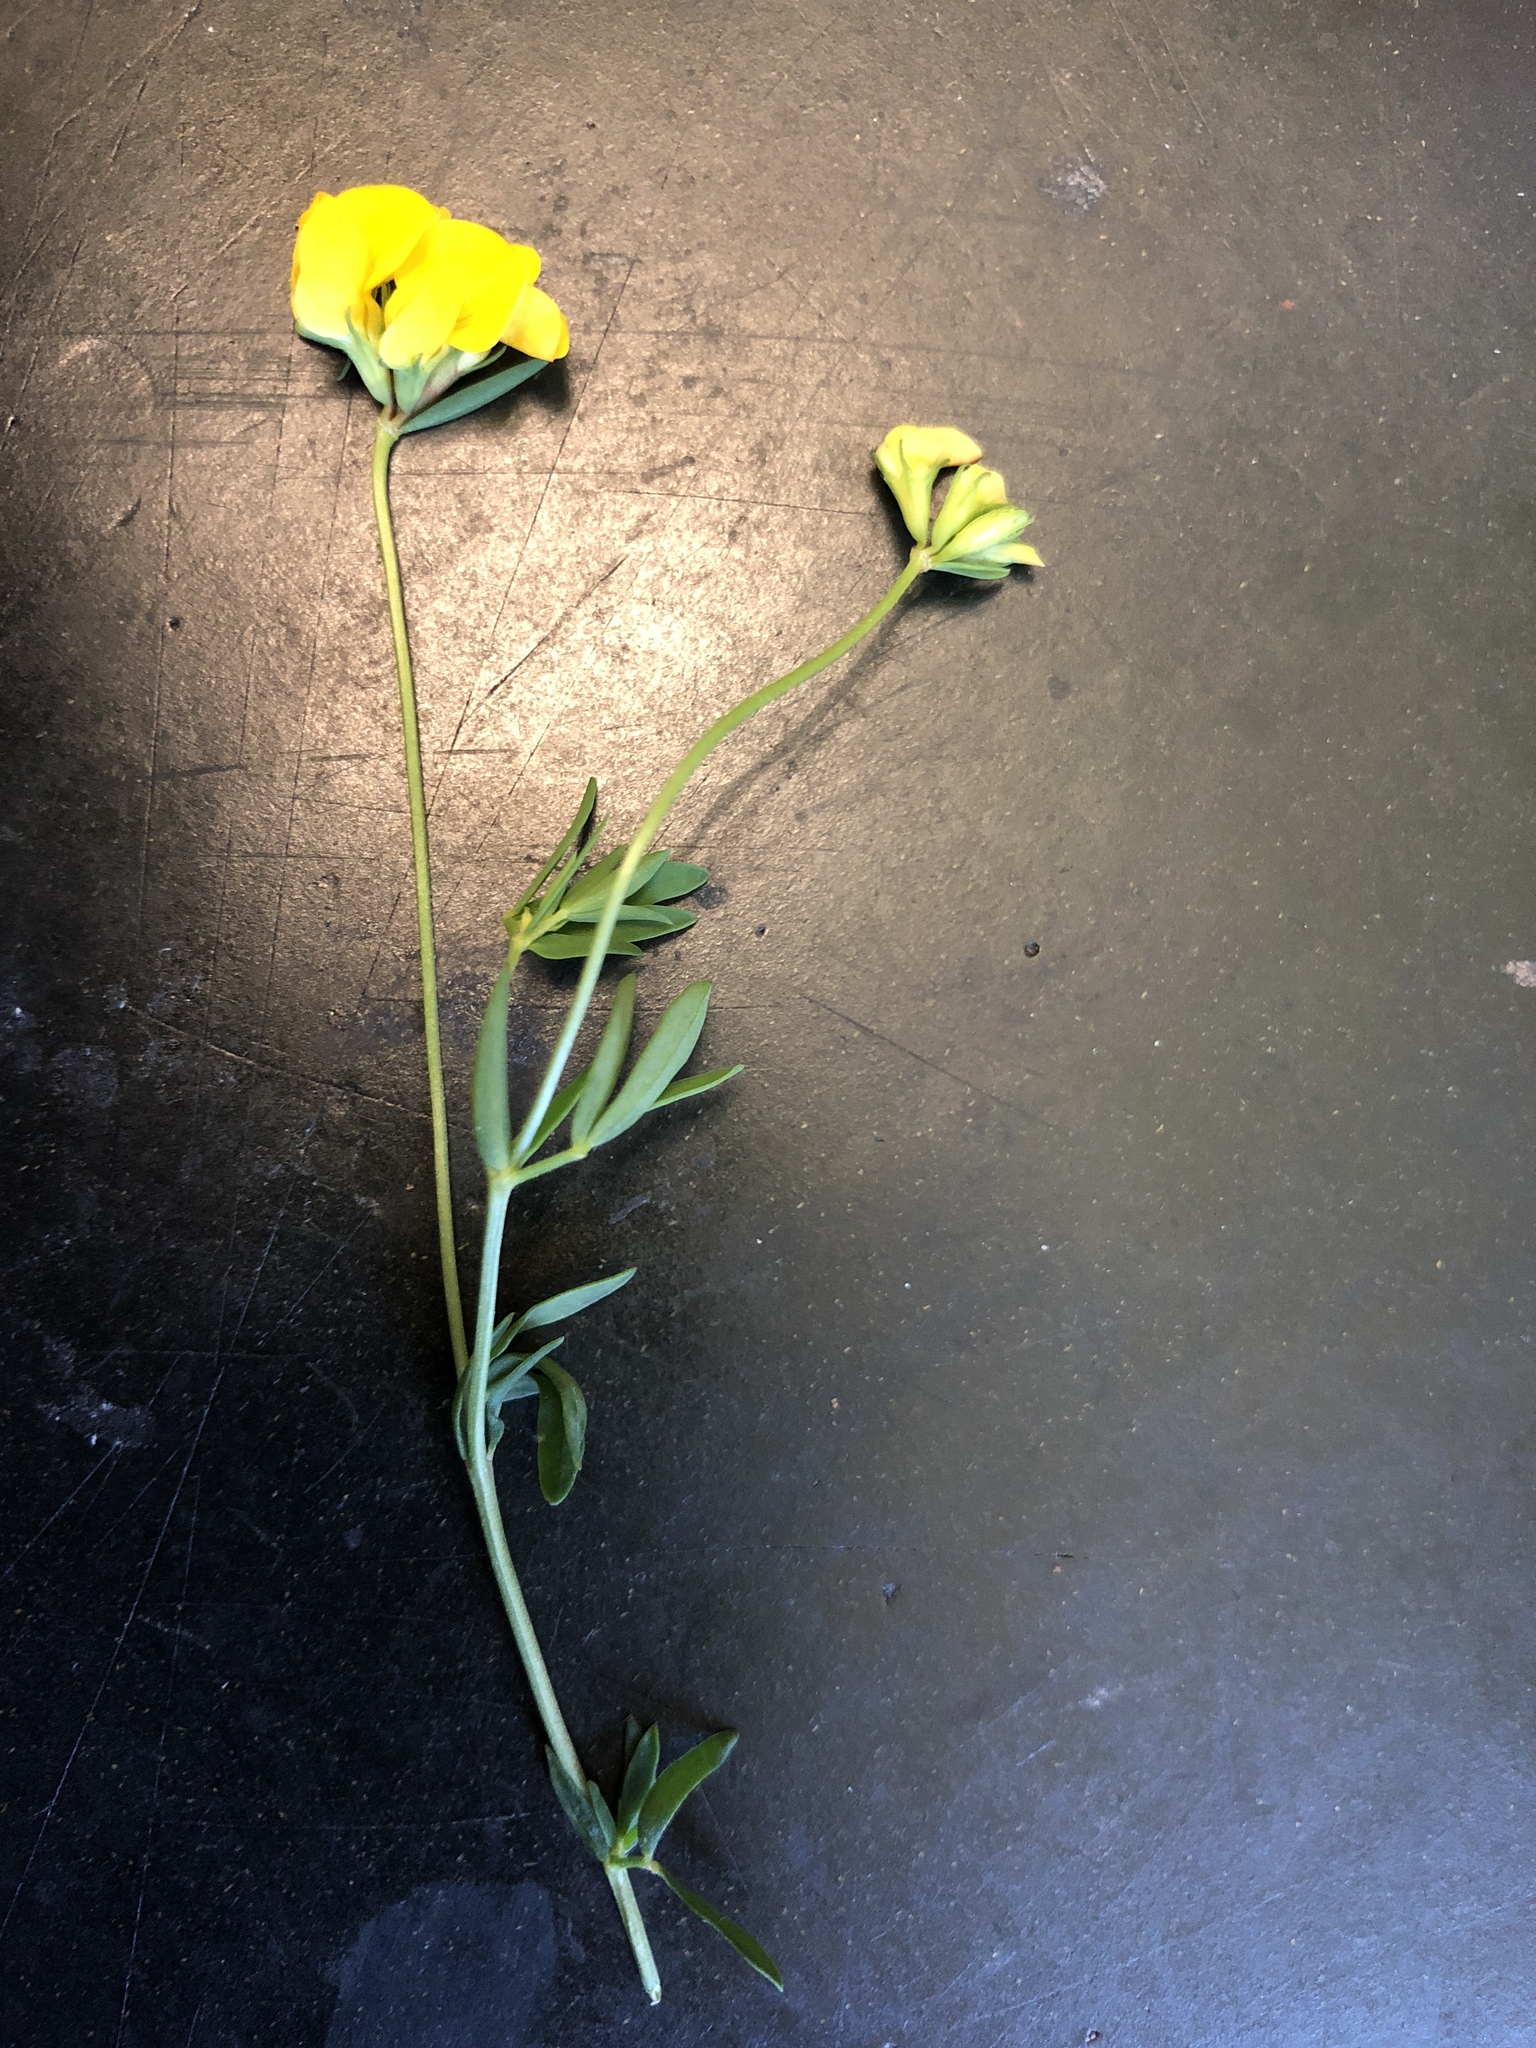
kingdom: Plantae
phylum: Tracheophyta
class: Magnoliopsida
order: Fabales
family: Fabaceae
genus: Lotus
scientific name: Lotus corniculatus
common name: Common bird's-foot-trefoil
